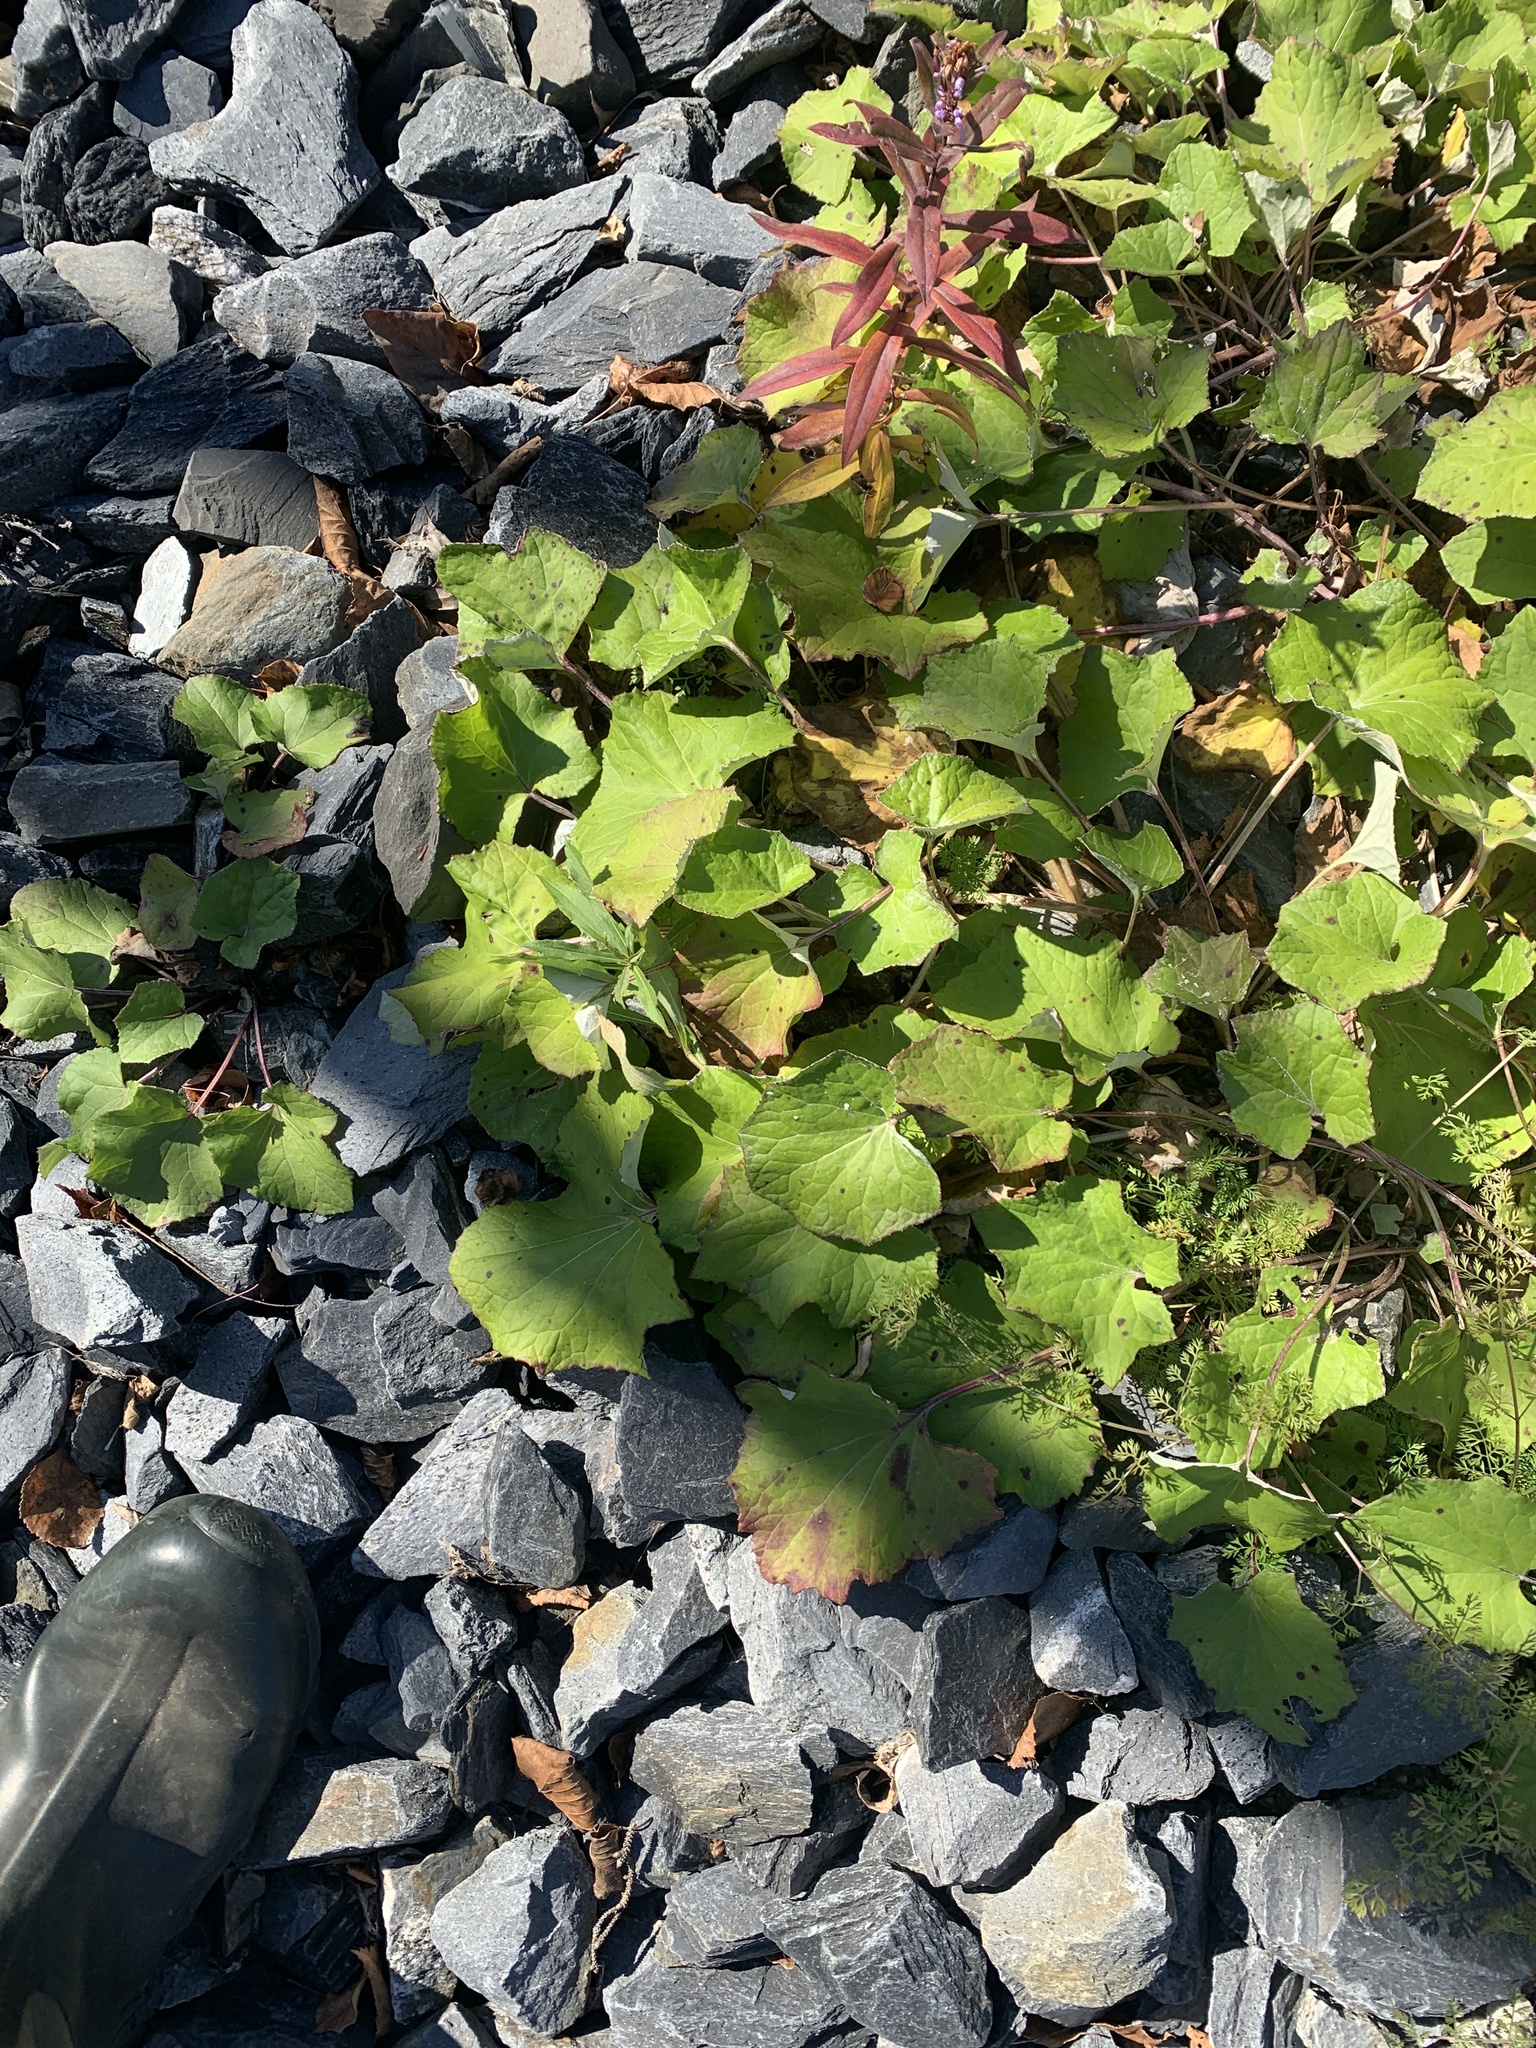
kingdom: Plantae
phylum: Tracheophyta
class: Magnoliopsida
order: Asterales
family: Asteraceae
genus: Tussilago
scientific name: Tussilago farfara
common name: Coltsfoot
